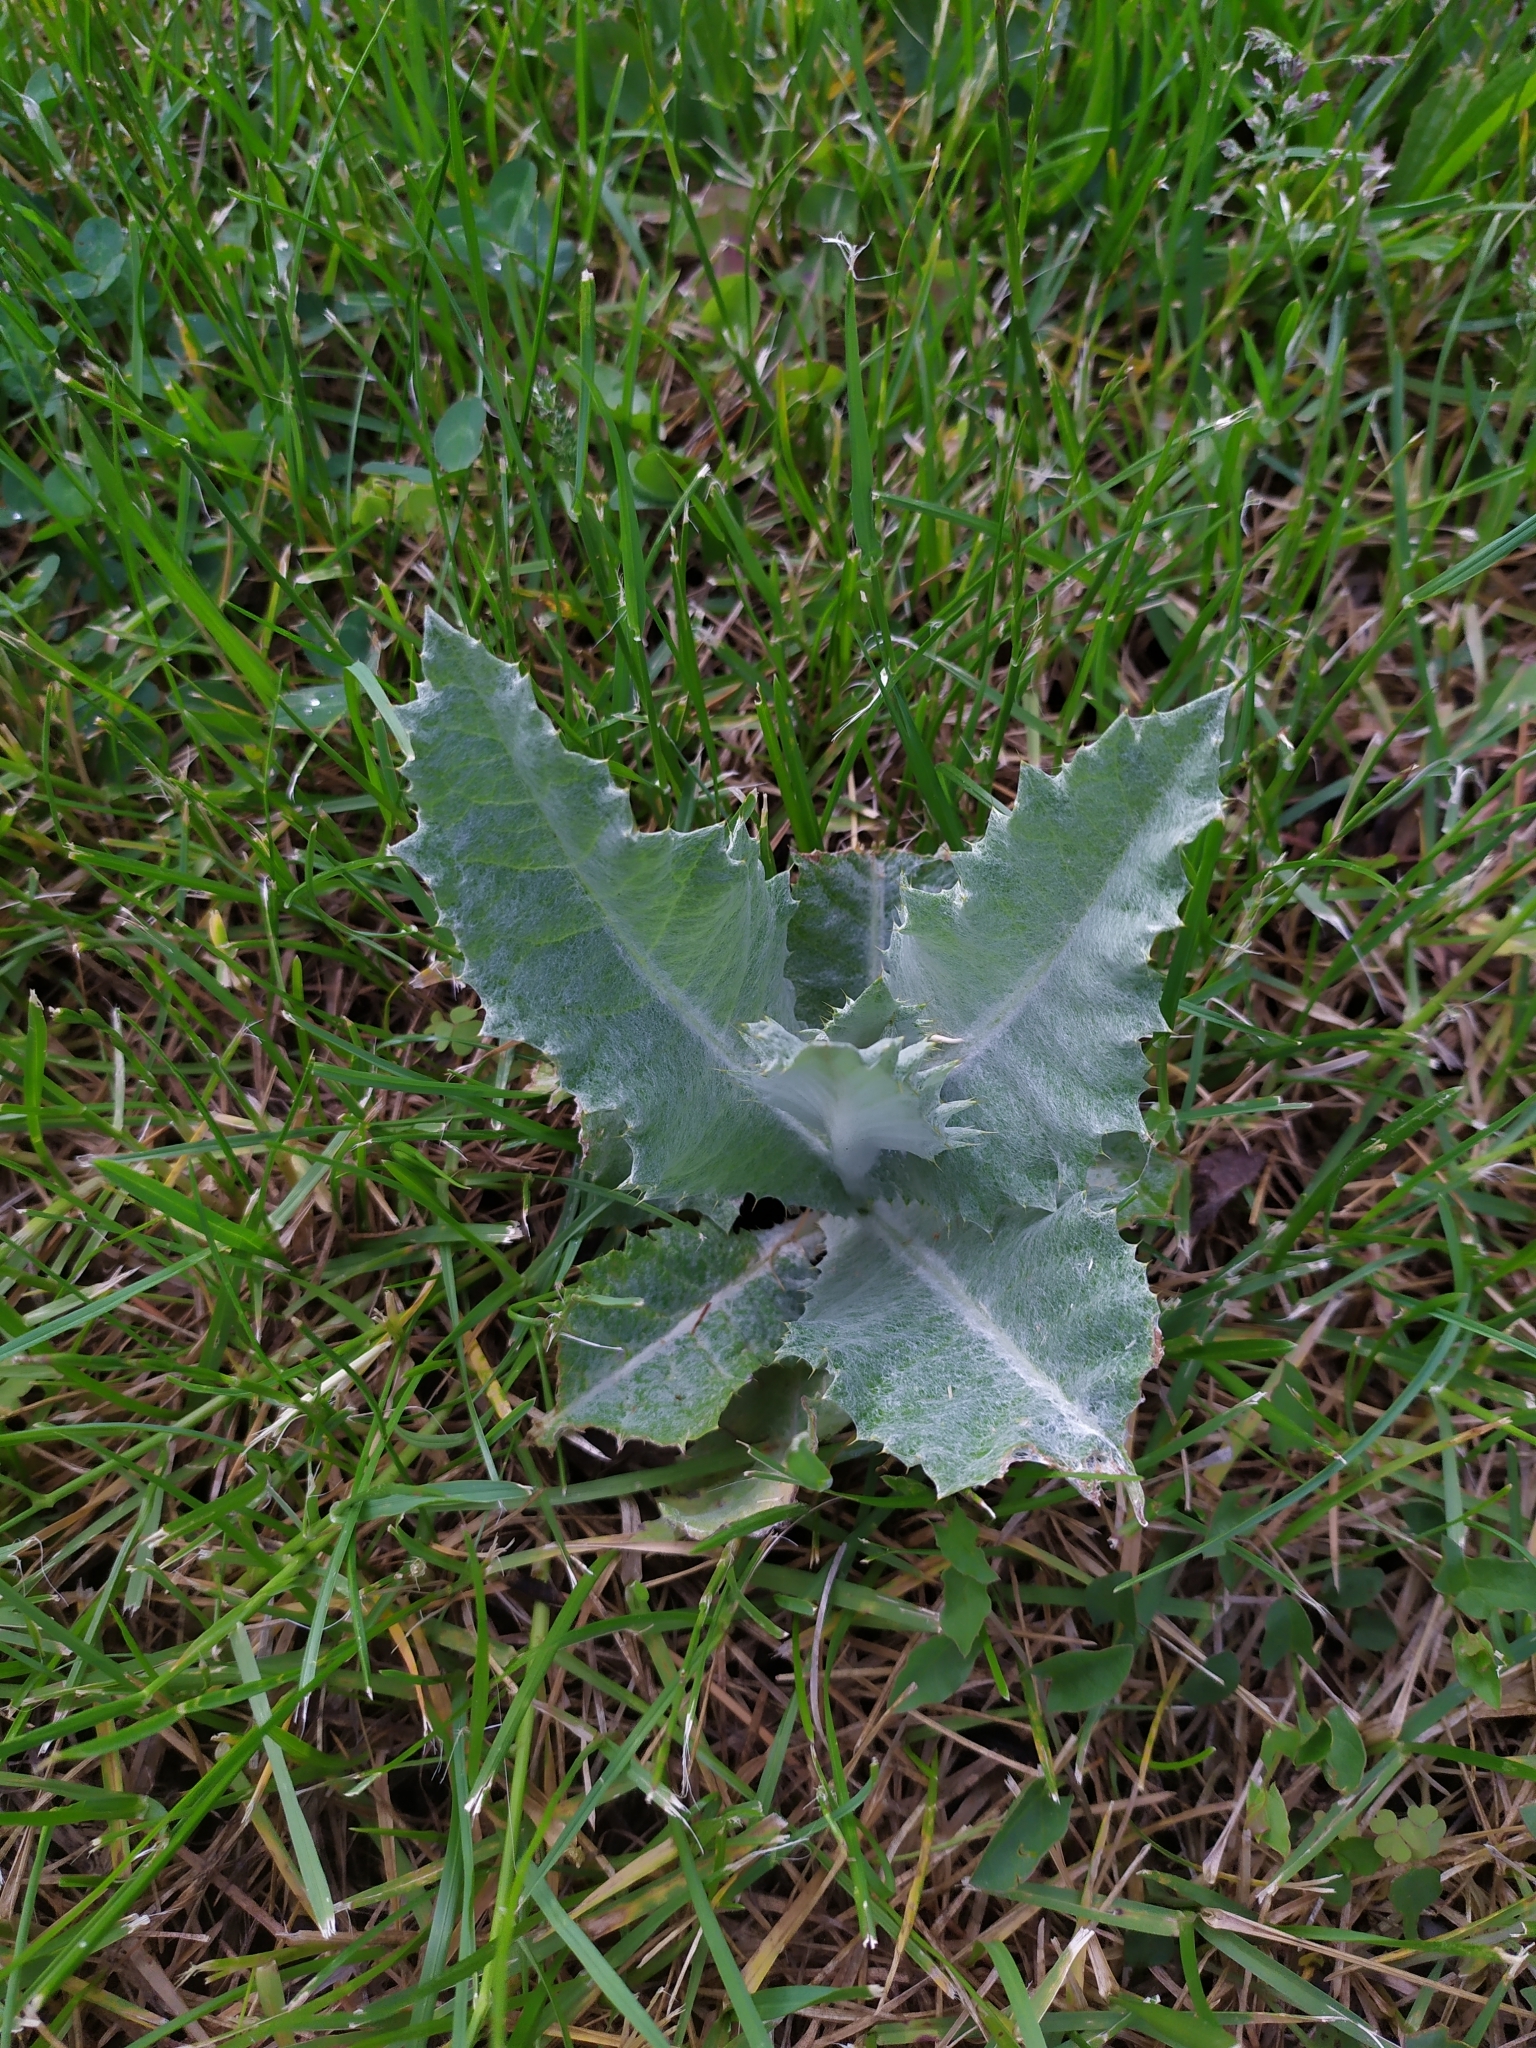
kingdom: Plantae
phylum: Tracheophyta
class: Magnoliopsida
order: Asterales
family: Asteraceae
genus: Onopordum
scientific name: Onopordum acanthium
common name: Scotch thistle
